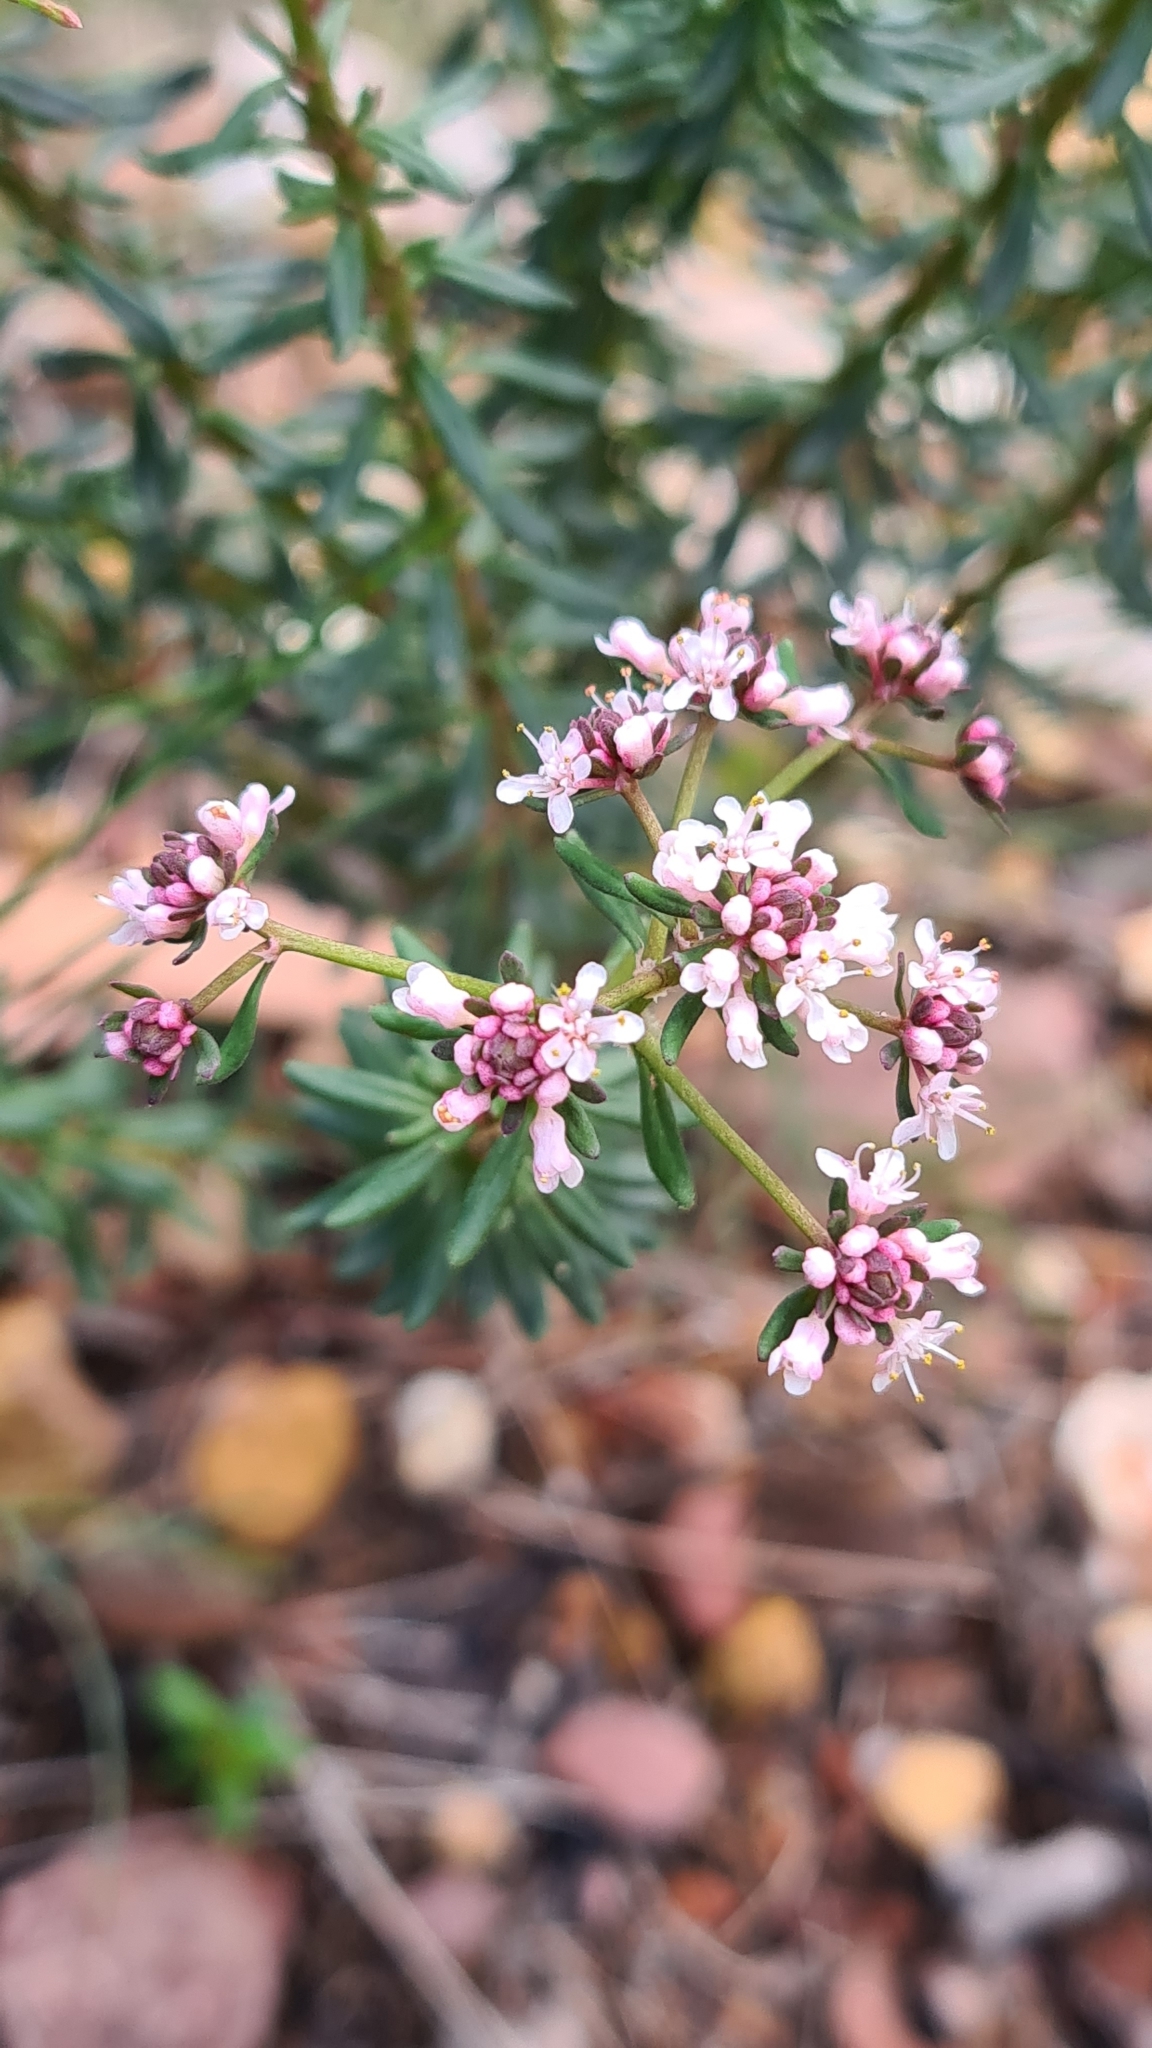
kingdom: Plantae
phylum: Tracheophyta
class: Magnoliopsida
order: Malpighiales
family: Phyllanthaceae
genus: Poranthera
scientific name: Poranthera corymbosa
